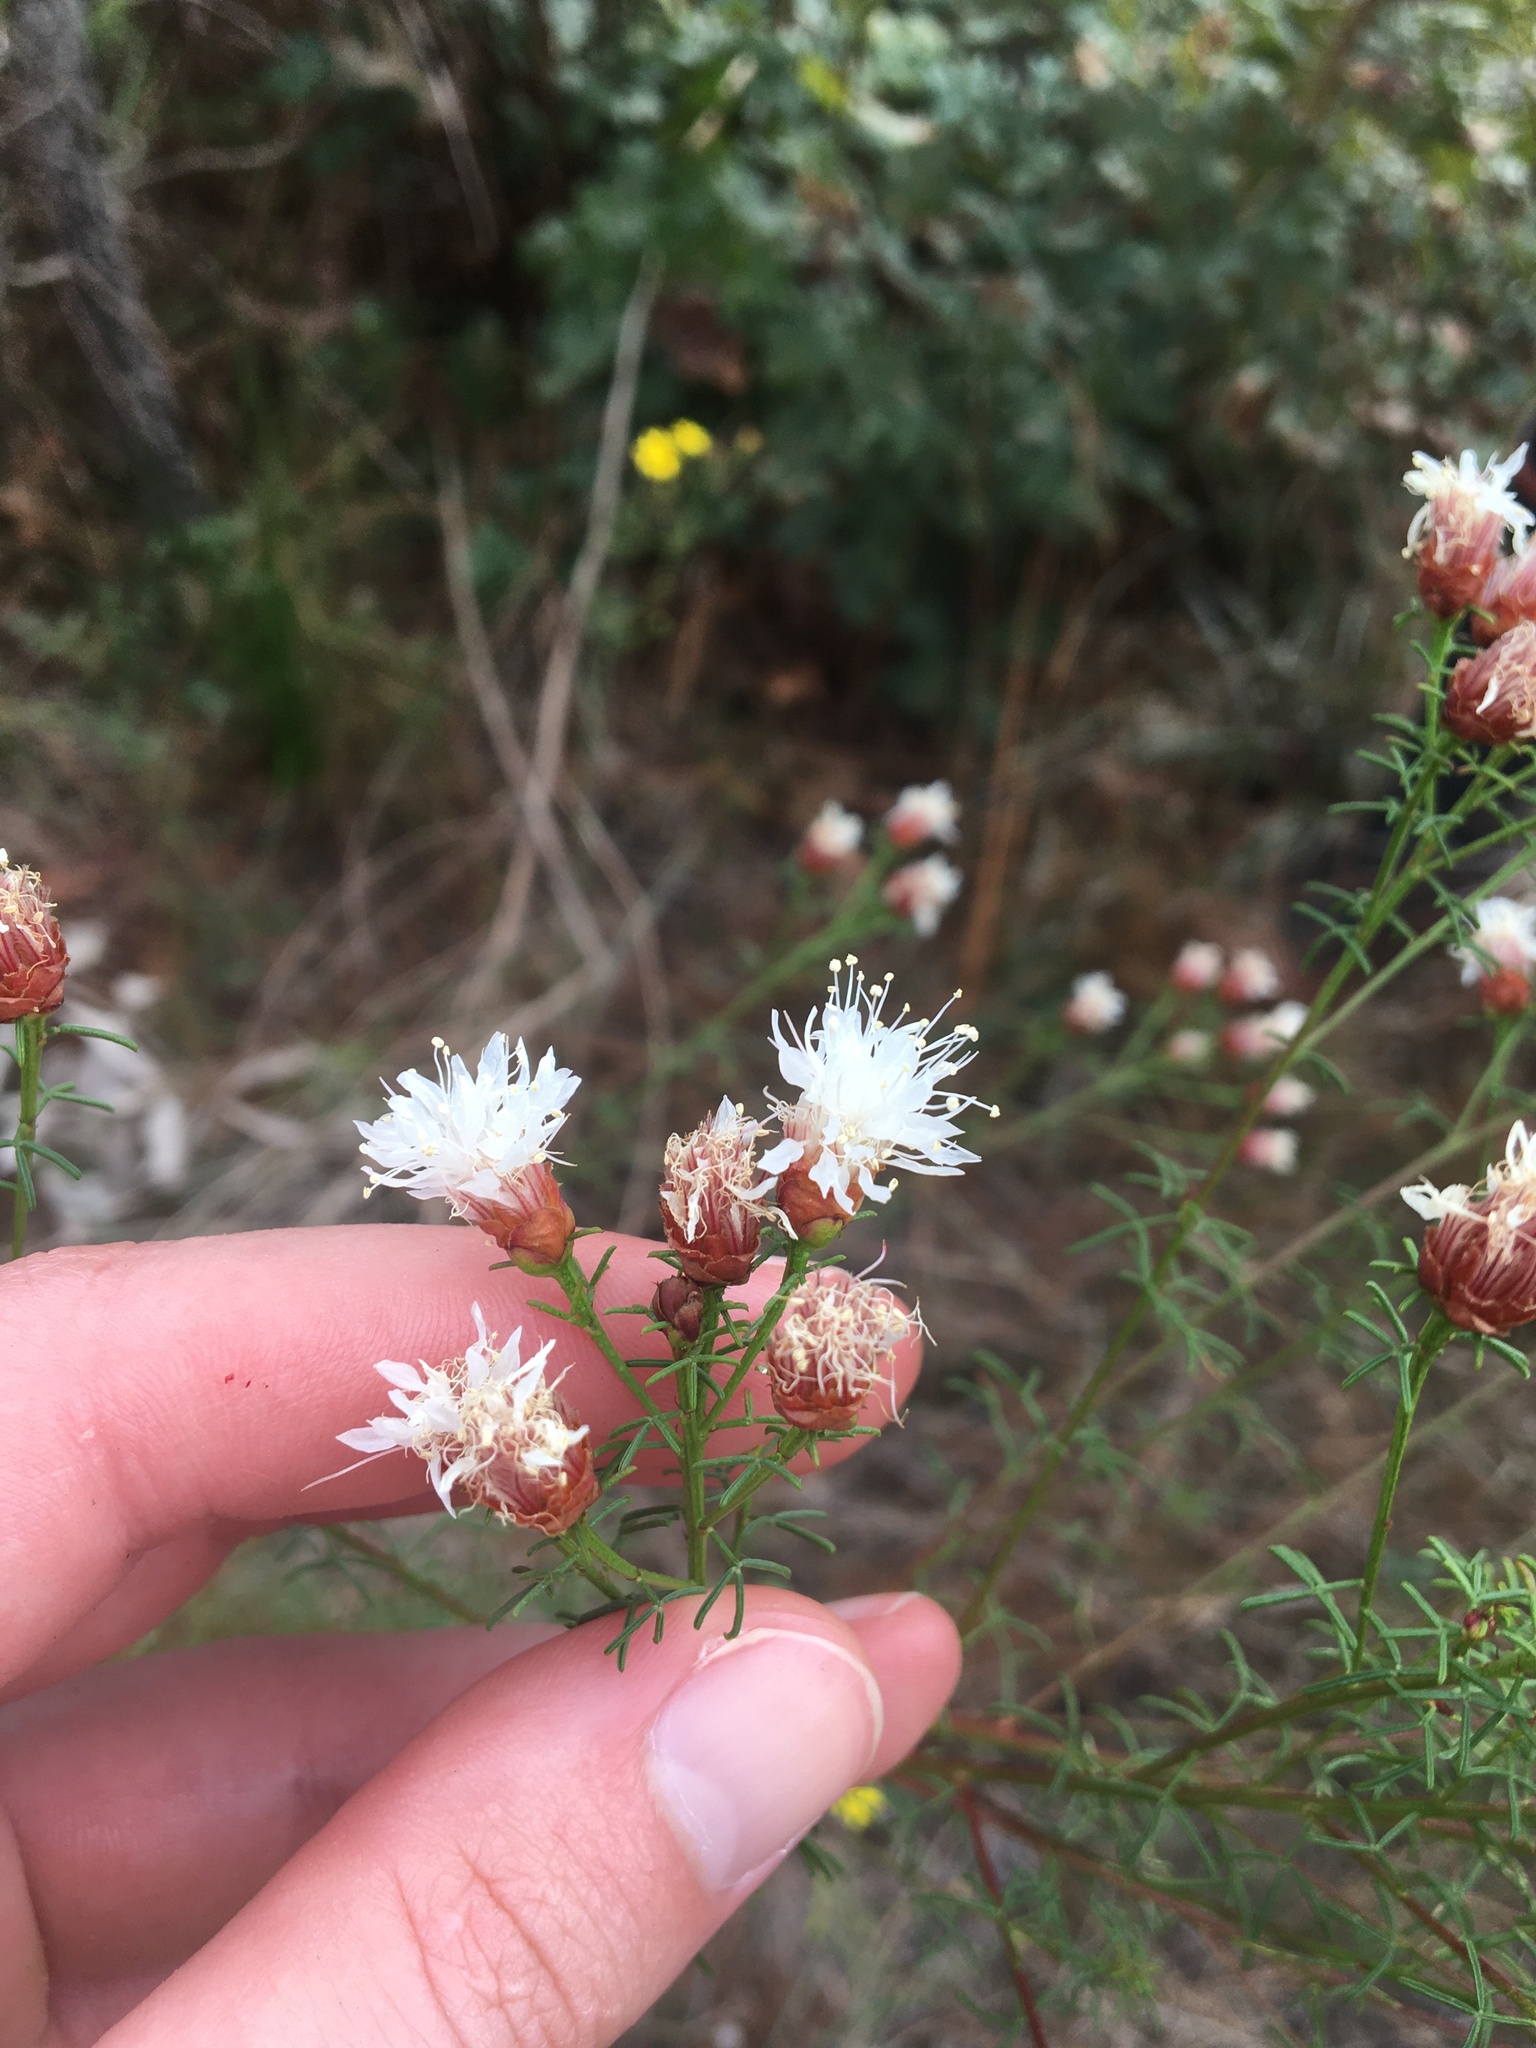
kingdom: Plantae
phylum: Tracheophyta
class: Magnoliopsida
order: Fabales
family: Fabaceae
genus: Dalea
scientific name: Dalea pinnata
